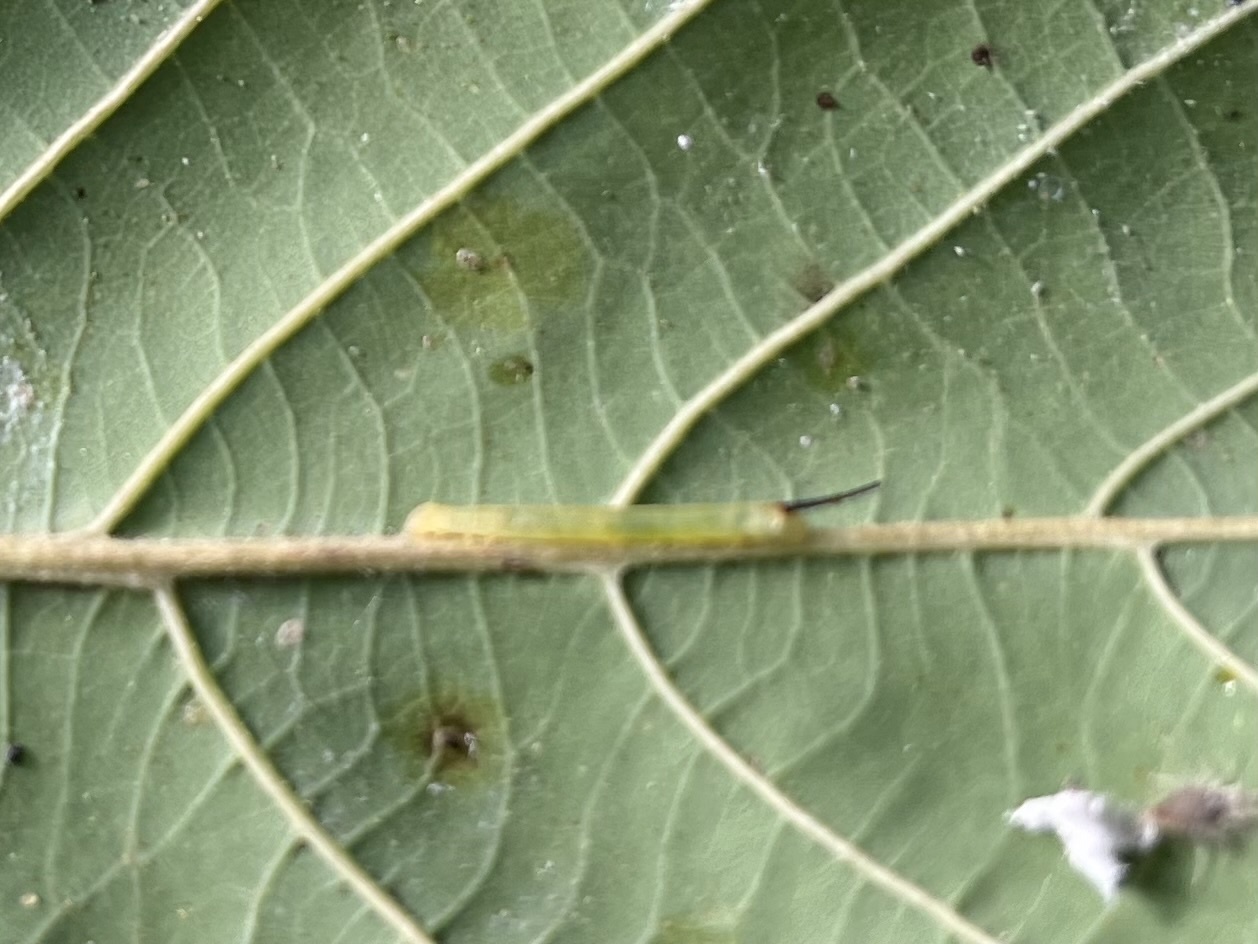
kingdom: Animalia
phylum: Arthropoda
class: Insecta
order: Lepidoptera
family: Sphingidae
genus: Xanthopan
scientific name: Xanthopan morganii
